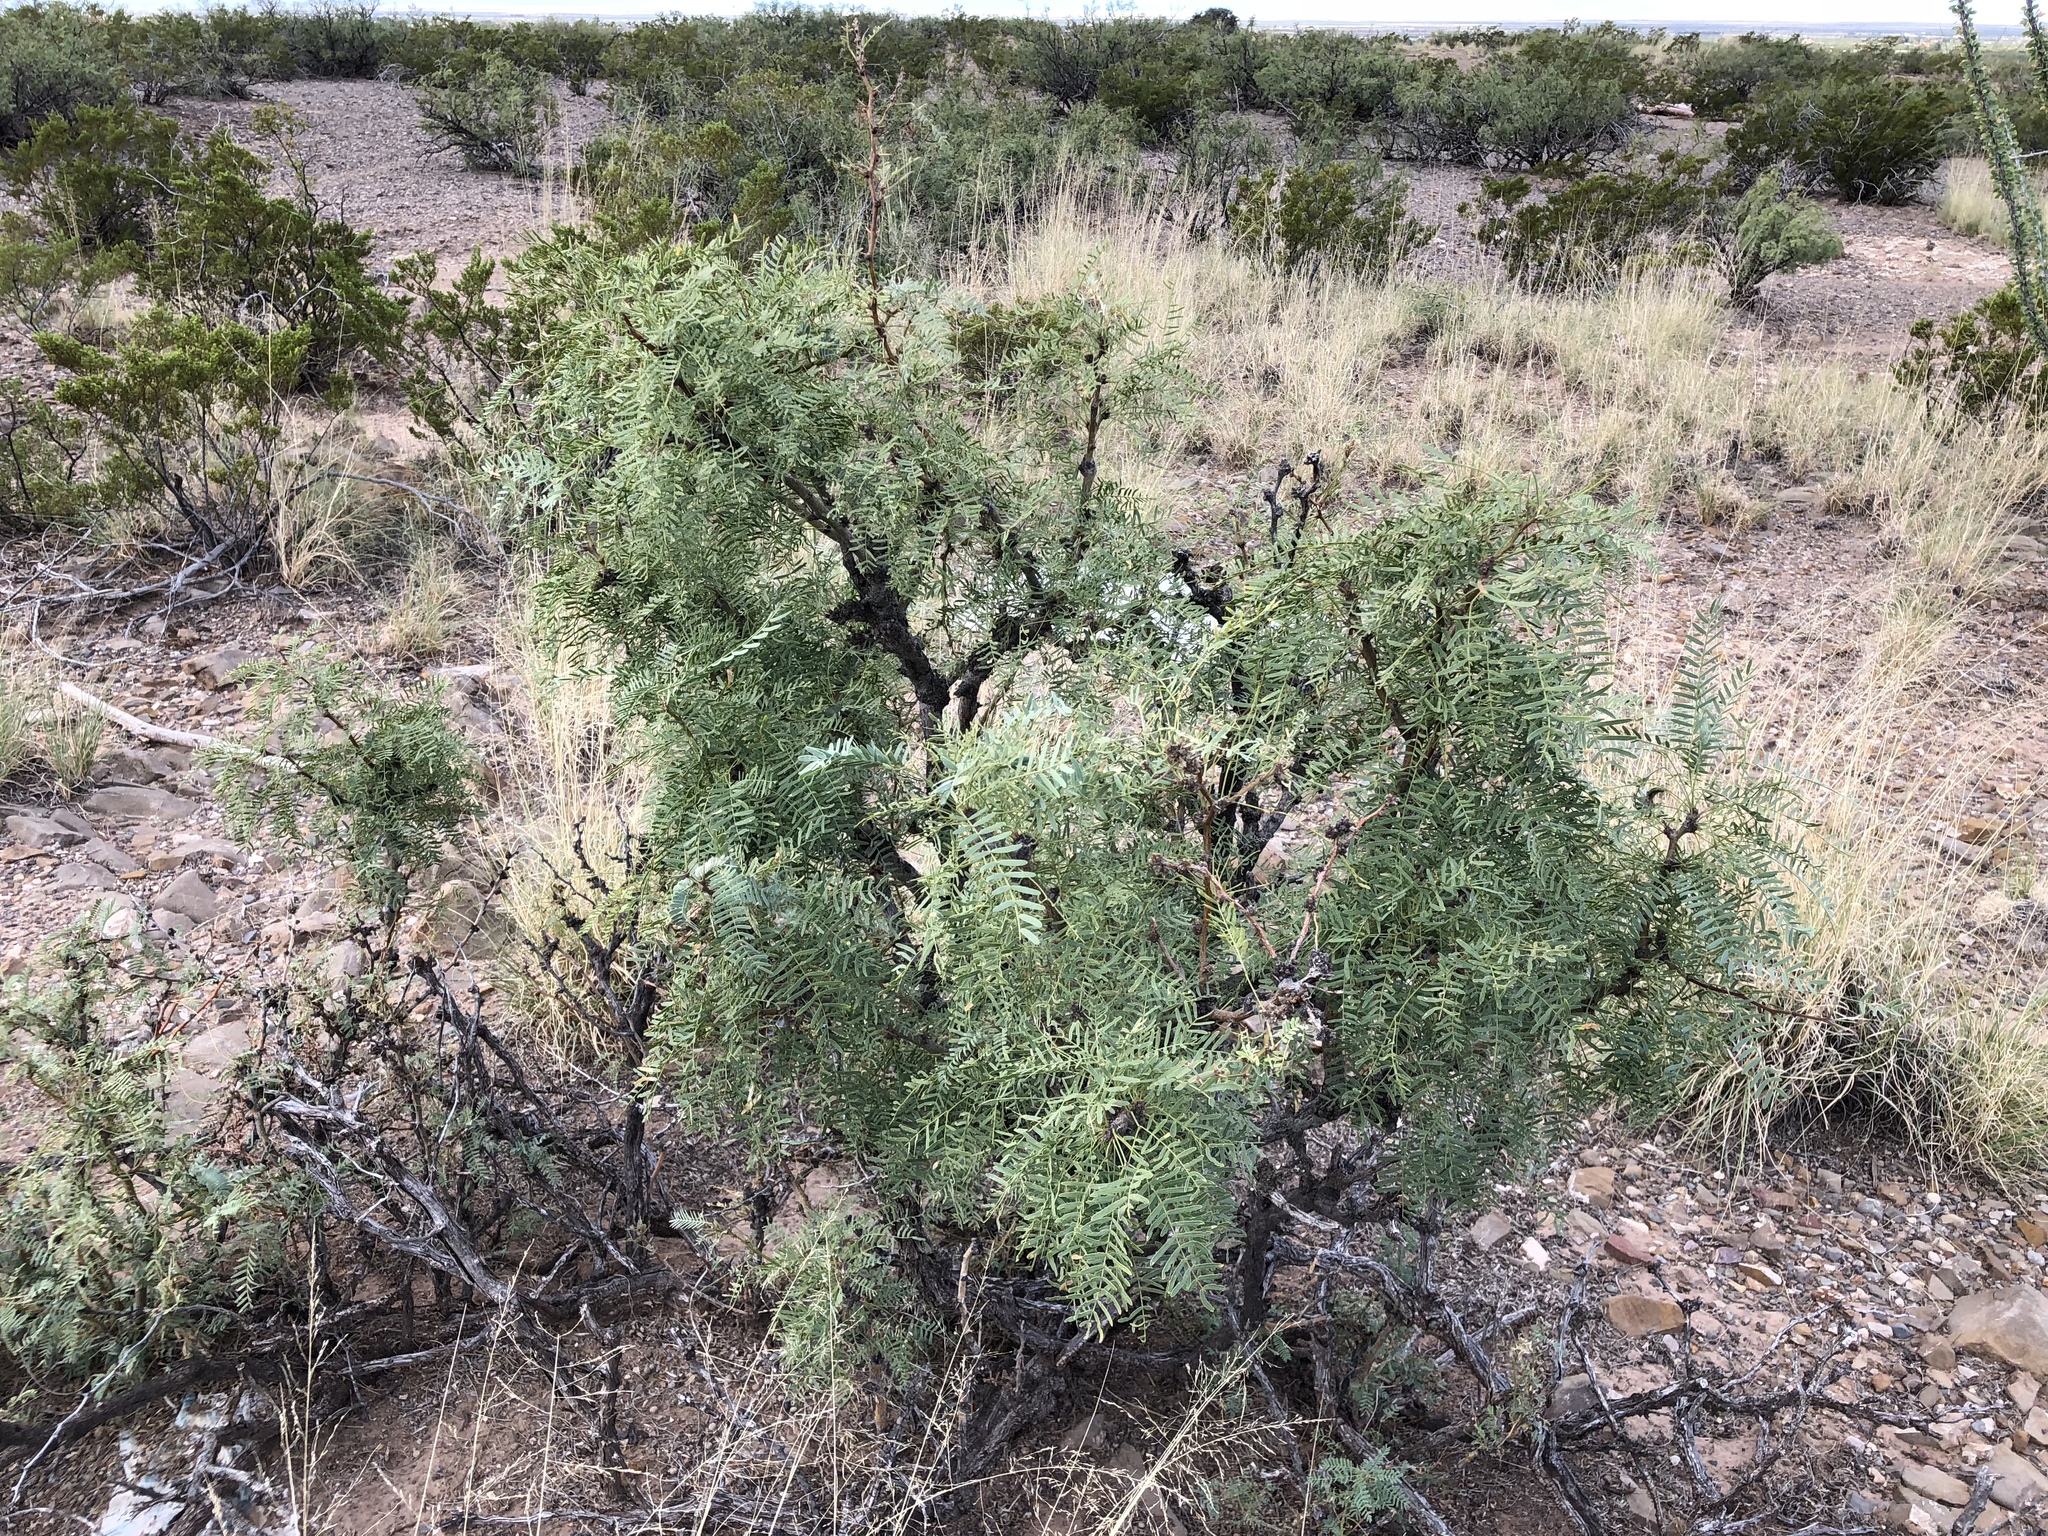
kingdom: Plantae
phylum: Tracheophyta
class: Magnoliopsida
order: Fabales
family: Fabaceae
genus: Prosopis
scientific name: Prosopis glandulosa
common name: Honey mesquite
